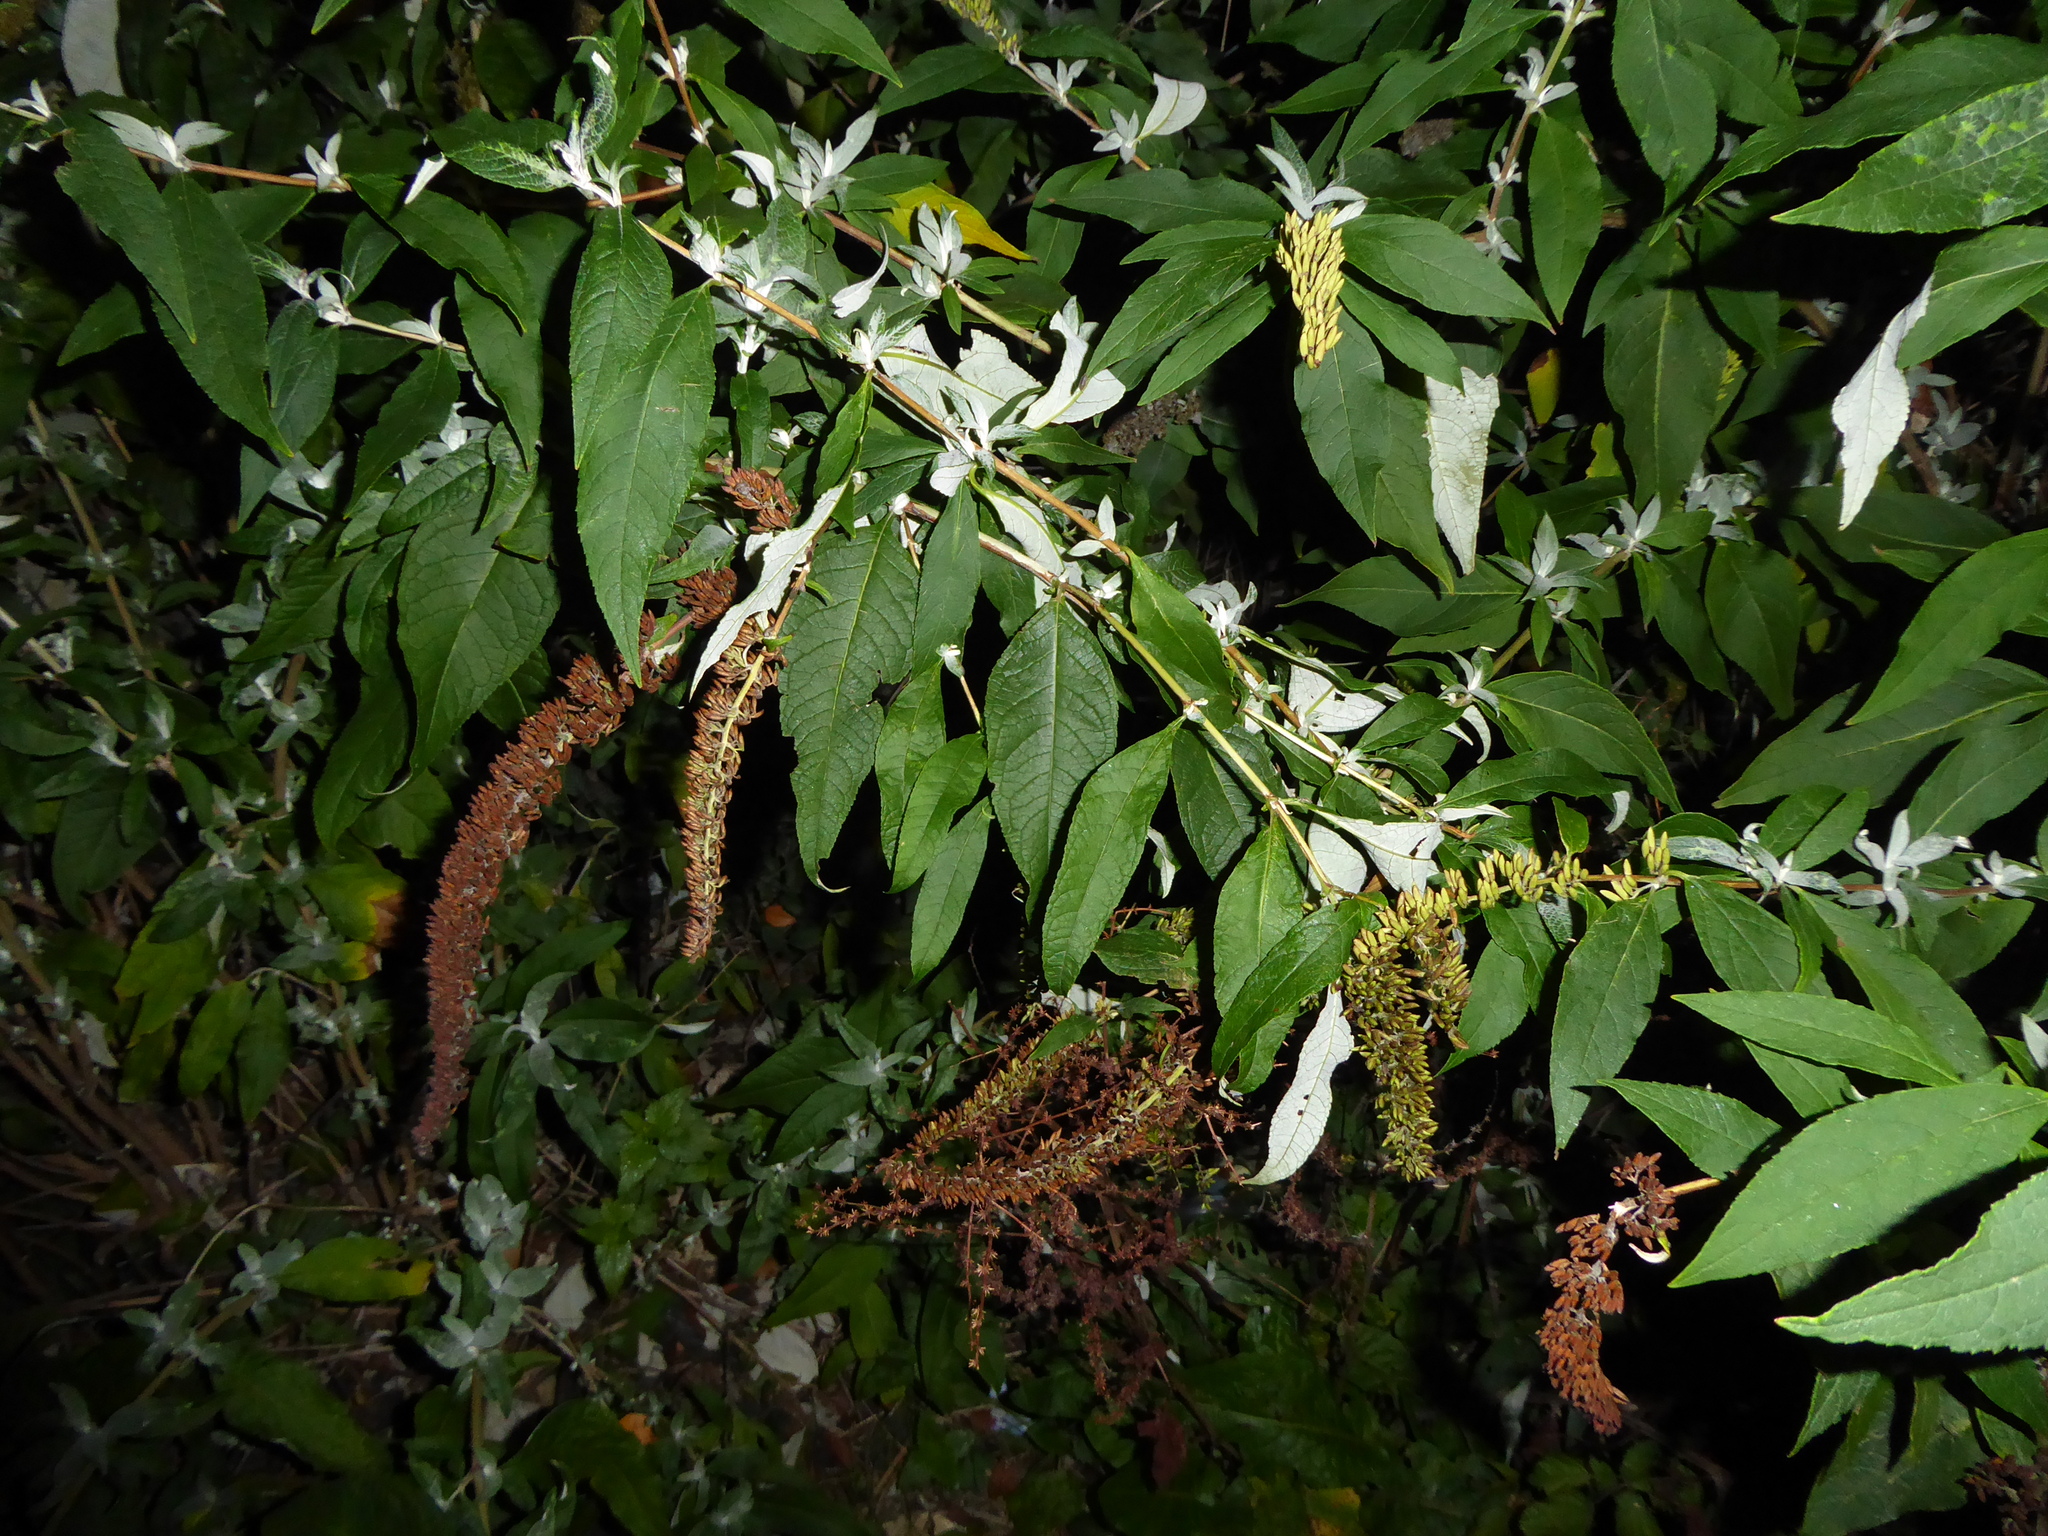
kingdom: Plantae
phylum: Tracheophyta
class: Magnoliopsida
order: Lamiales
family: Scrophulariaceae
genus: Buddleja
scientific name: Buddleja davidii
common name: Butterfly-bush
